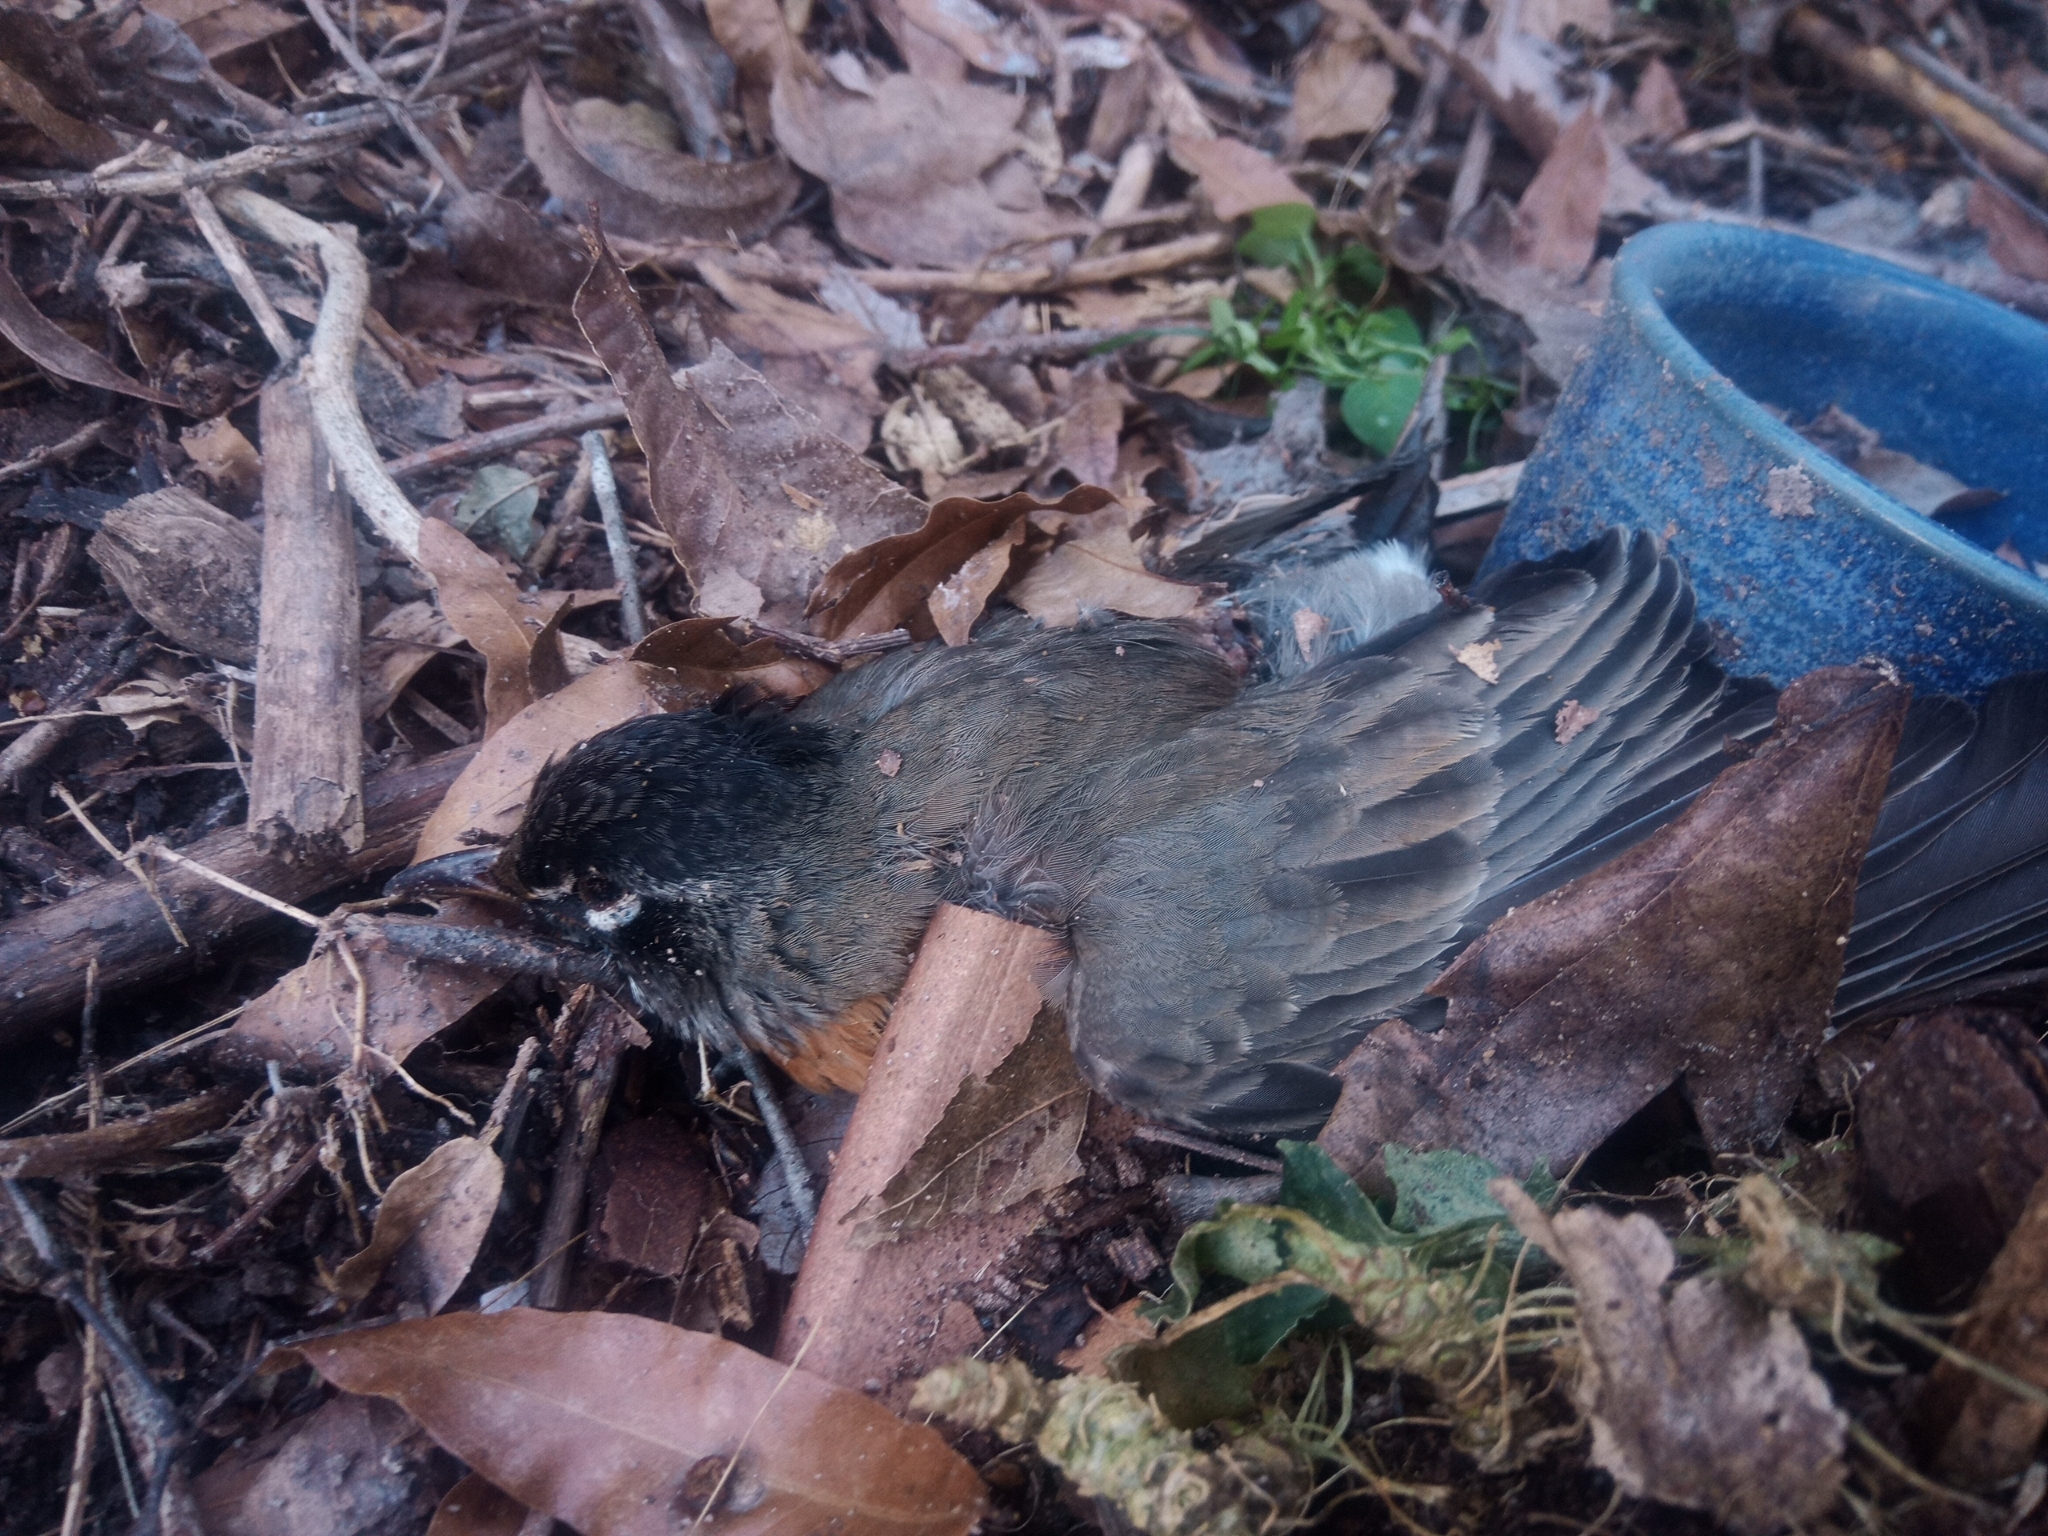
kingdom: Animalia
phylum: Chordata
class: Aves
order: Passeriformes
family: Turdidae
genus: Turdus
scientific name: Turdus migratorius
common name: American robin
